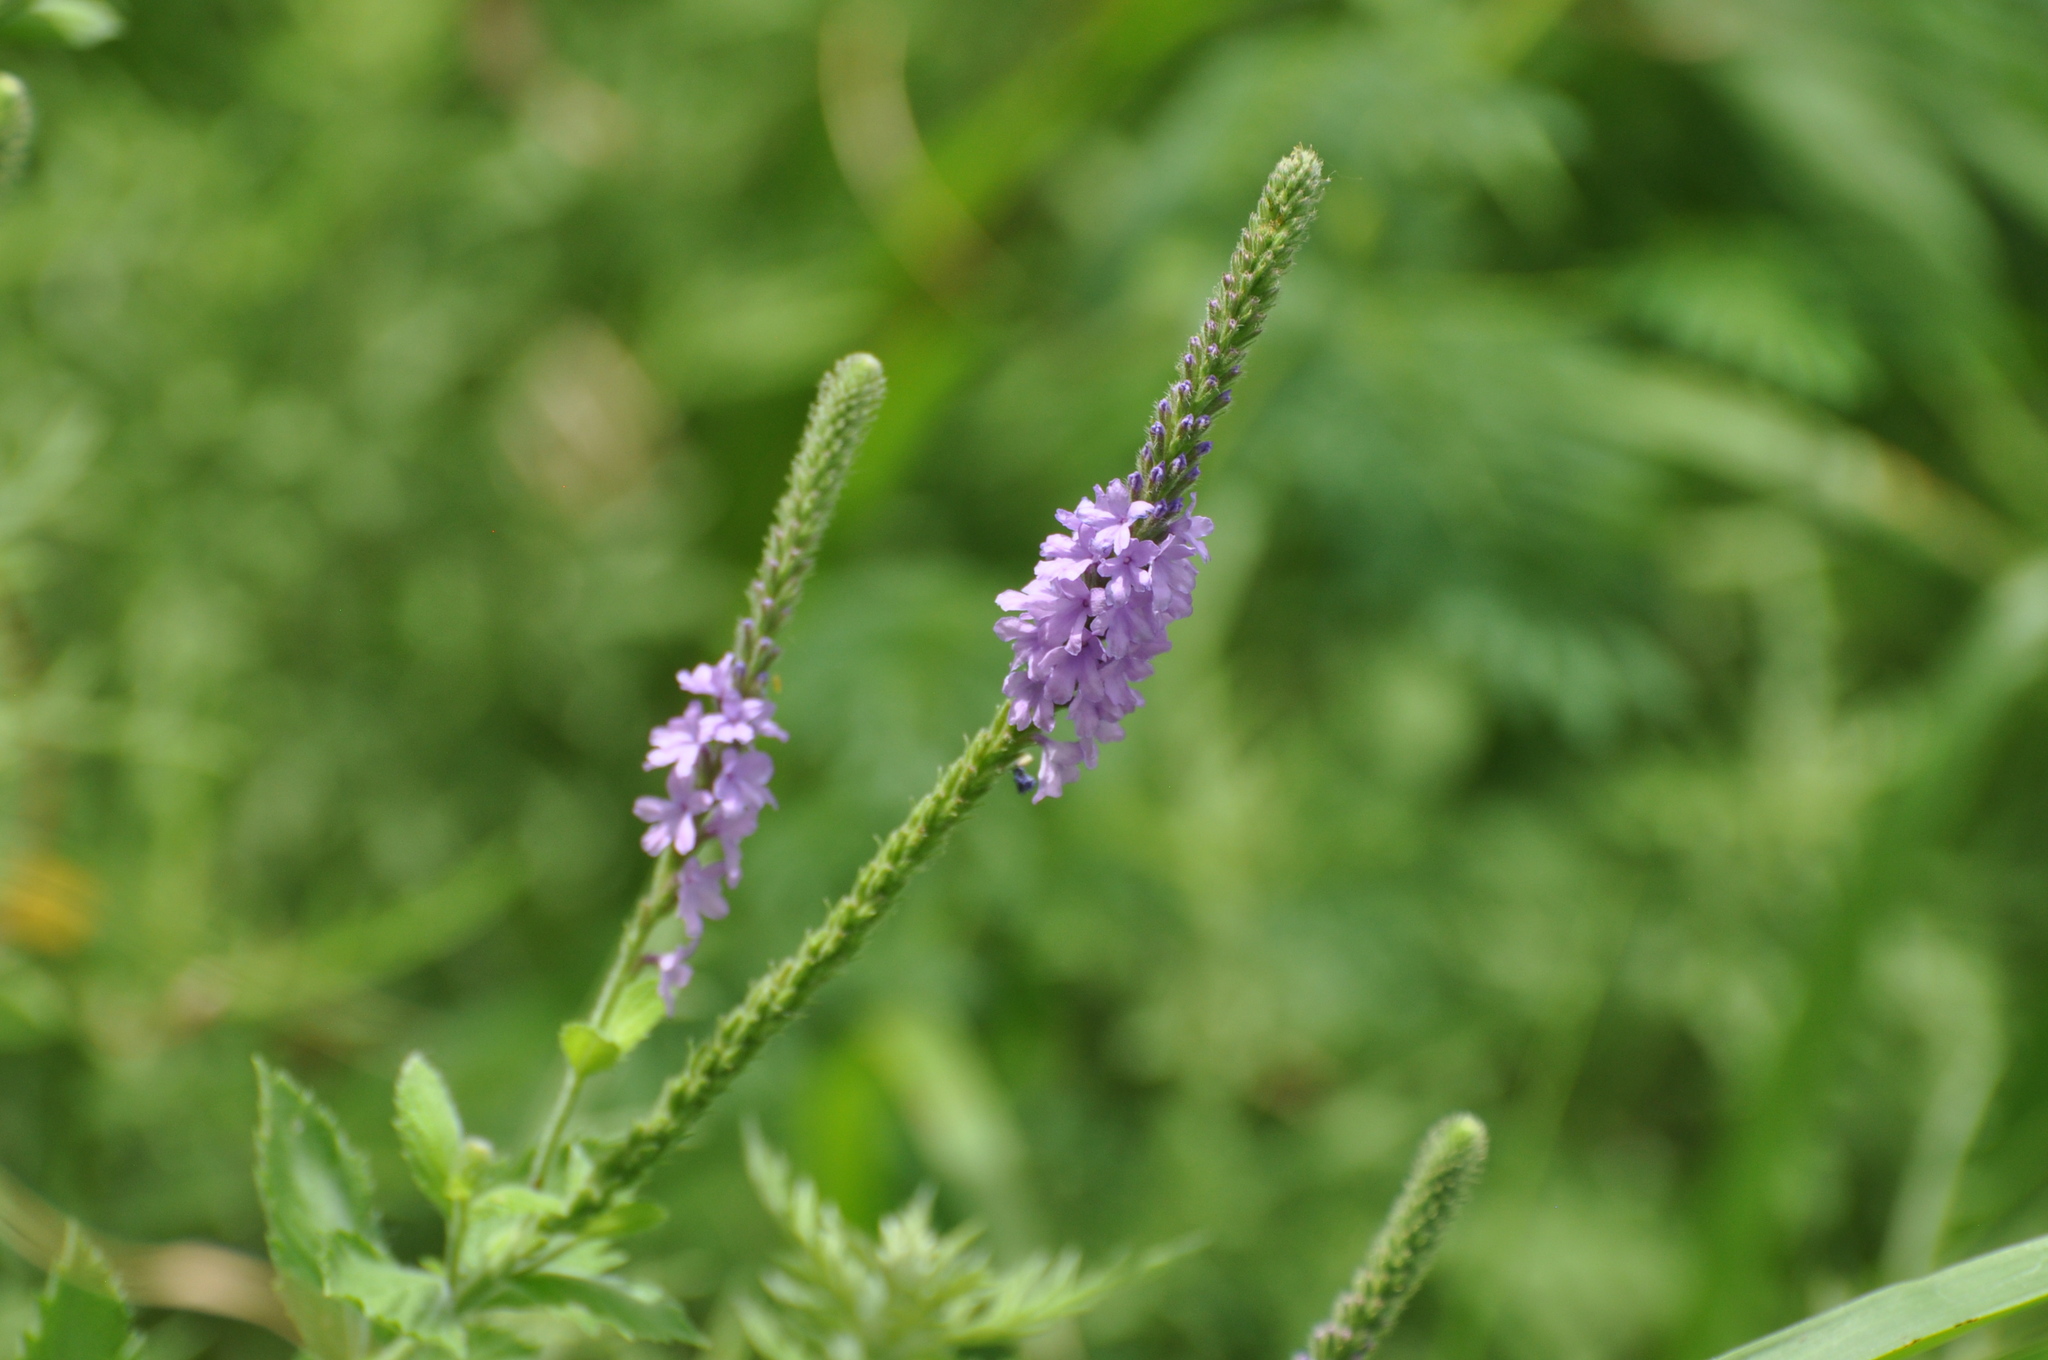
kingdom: Plantae
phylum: Tracheophyta
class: Magnoliopsida
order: Lamiales
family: Verbenaceae
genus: Verbena
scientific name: Verbena stricta
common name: Hoary vervain
